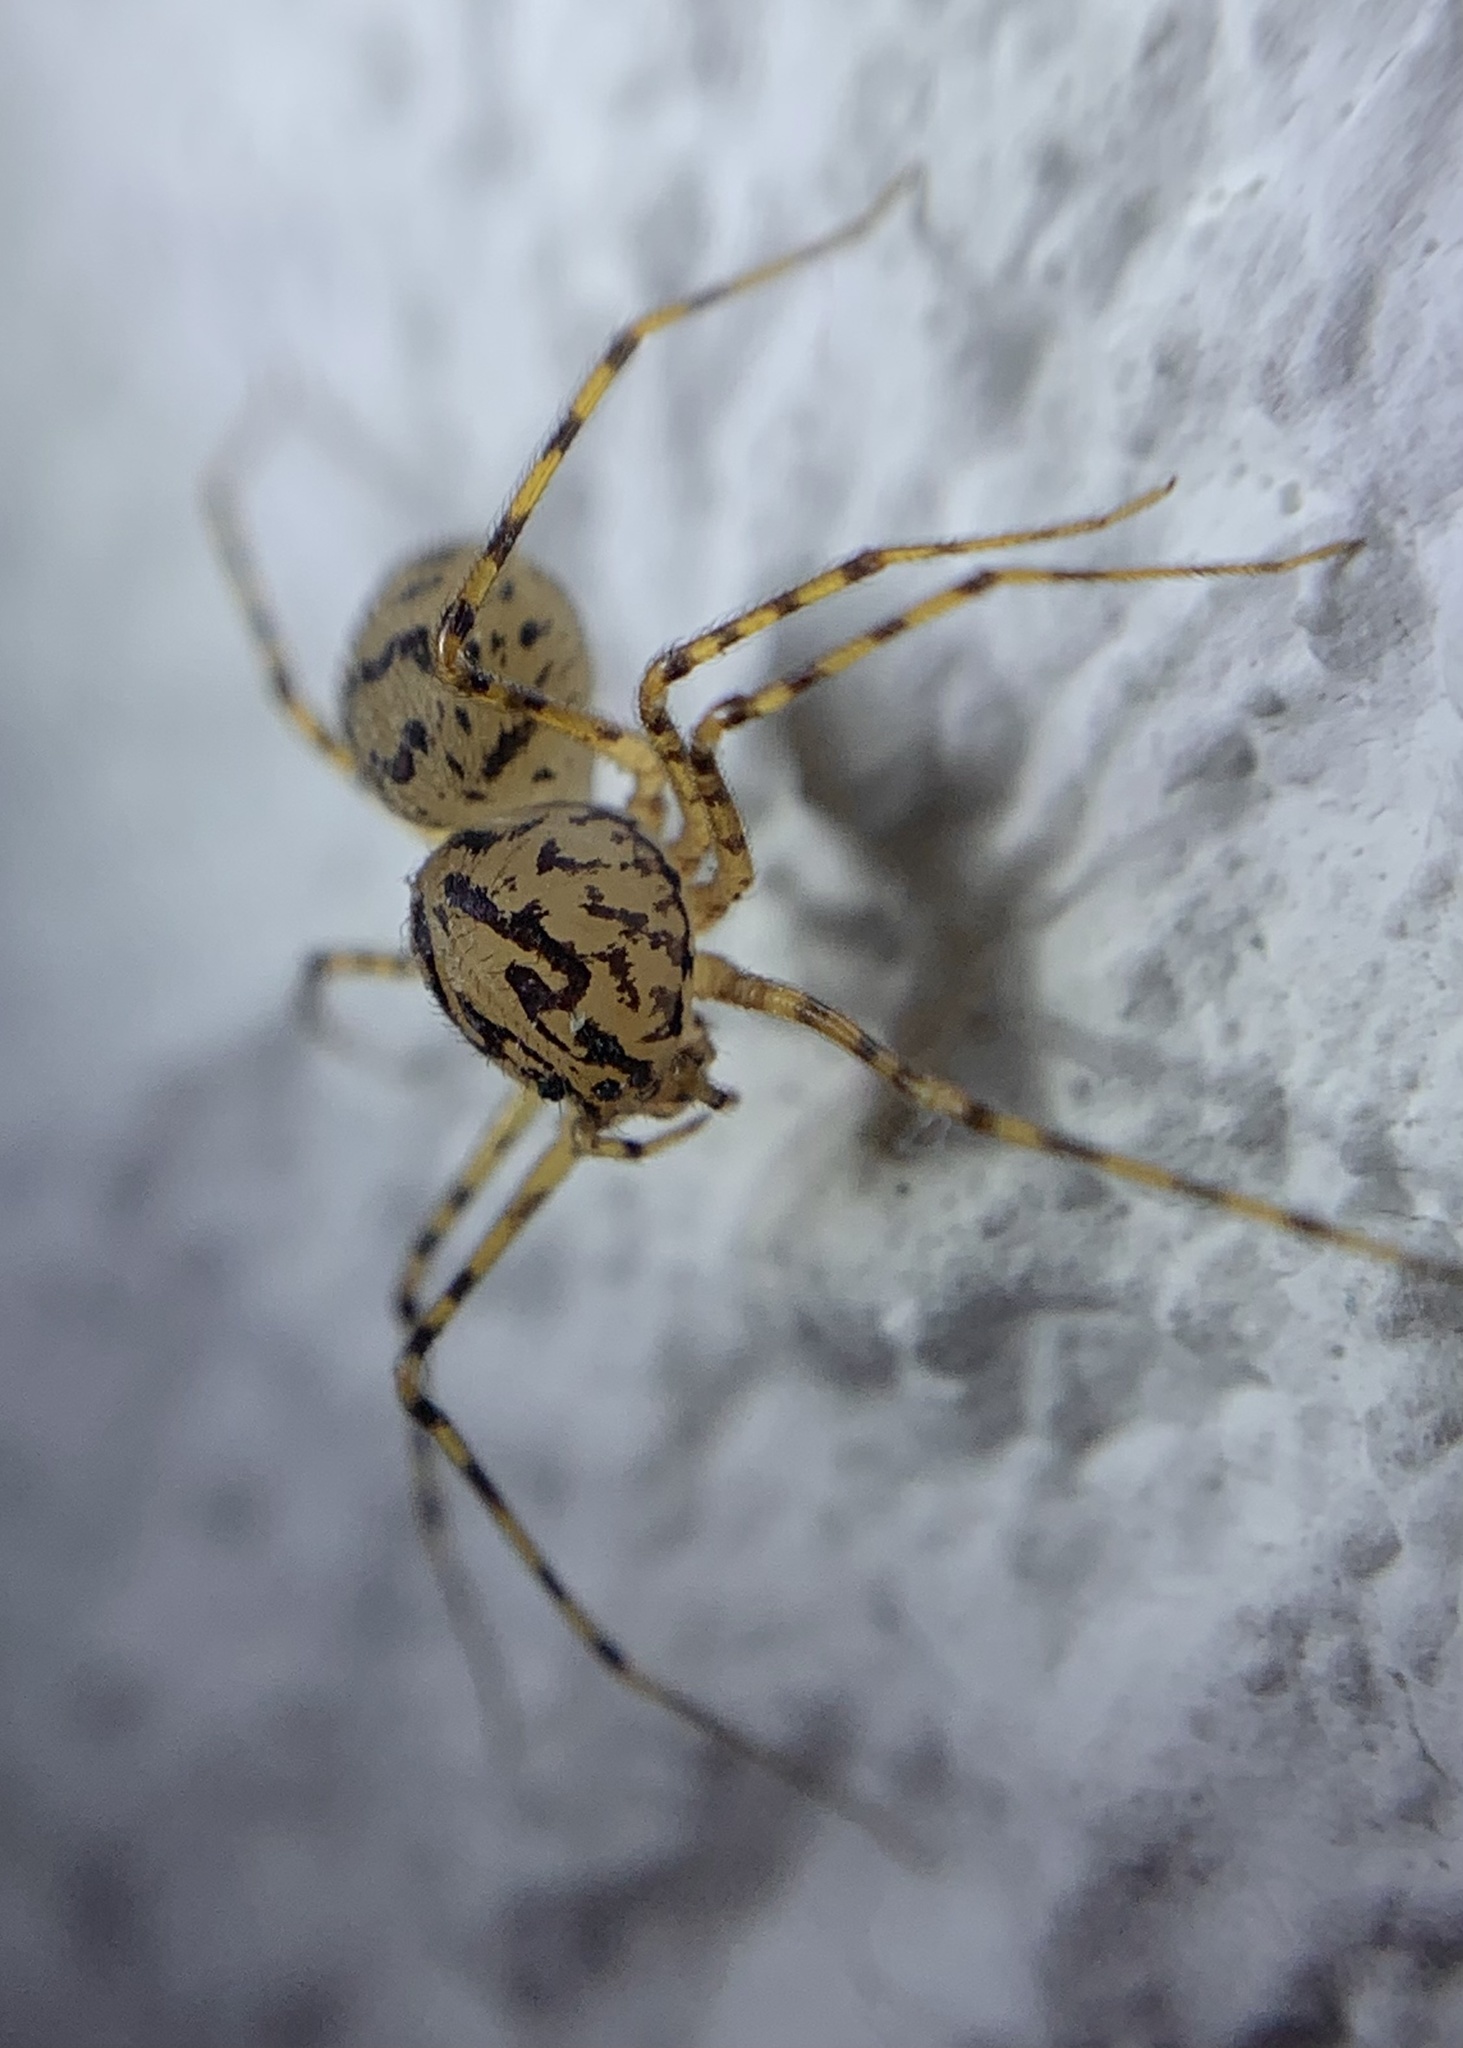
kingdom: Animalia
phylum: Arthropoda
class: Arachnida
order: Araneae
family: Scytodidae
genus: Scytodes
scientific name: Scytodes thoracica
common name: Spitting spider
